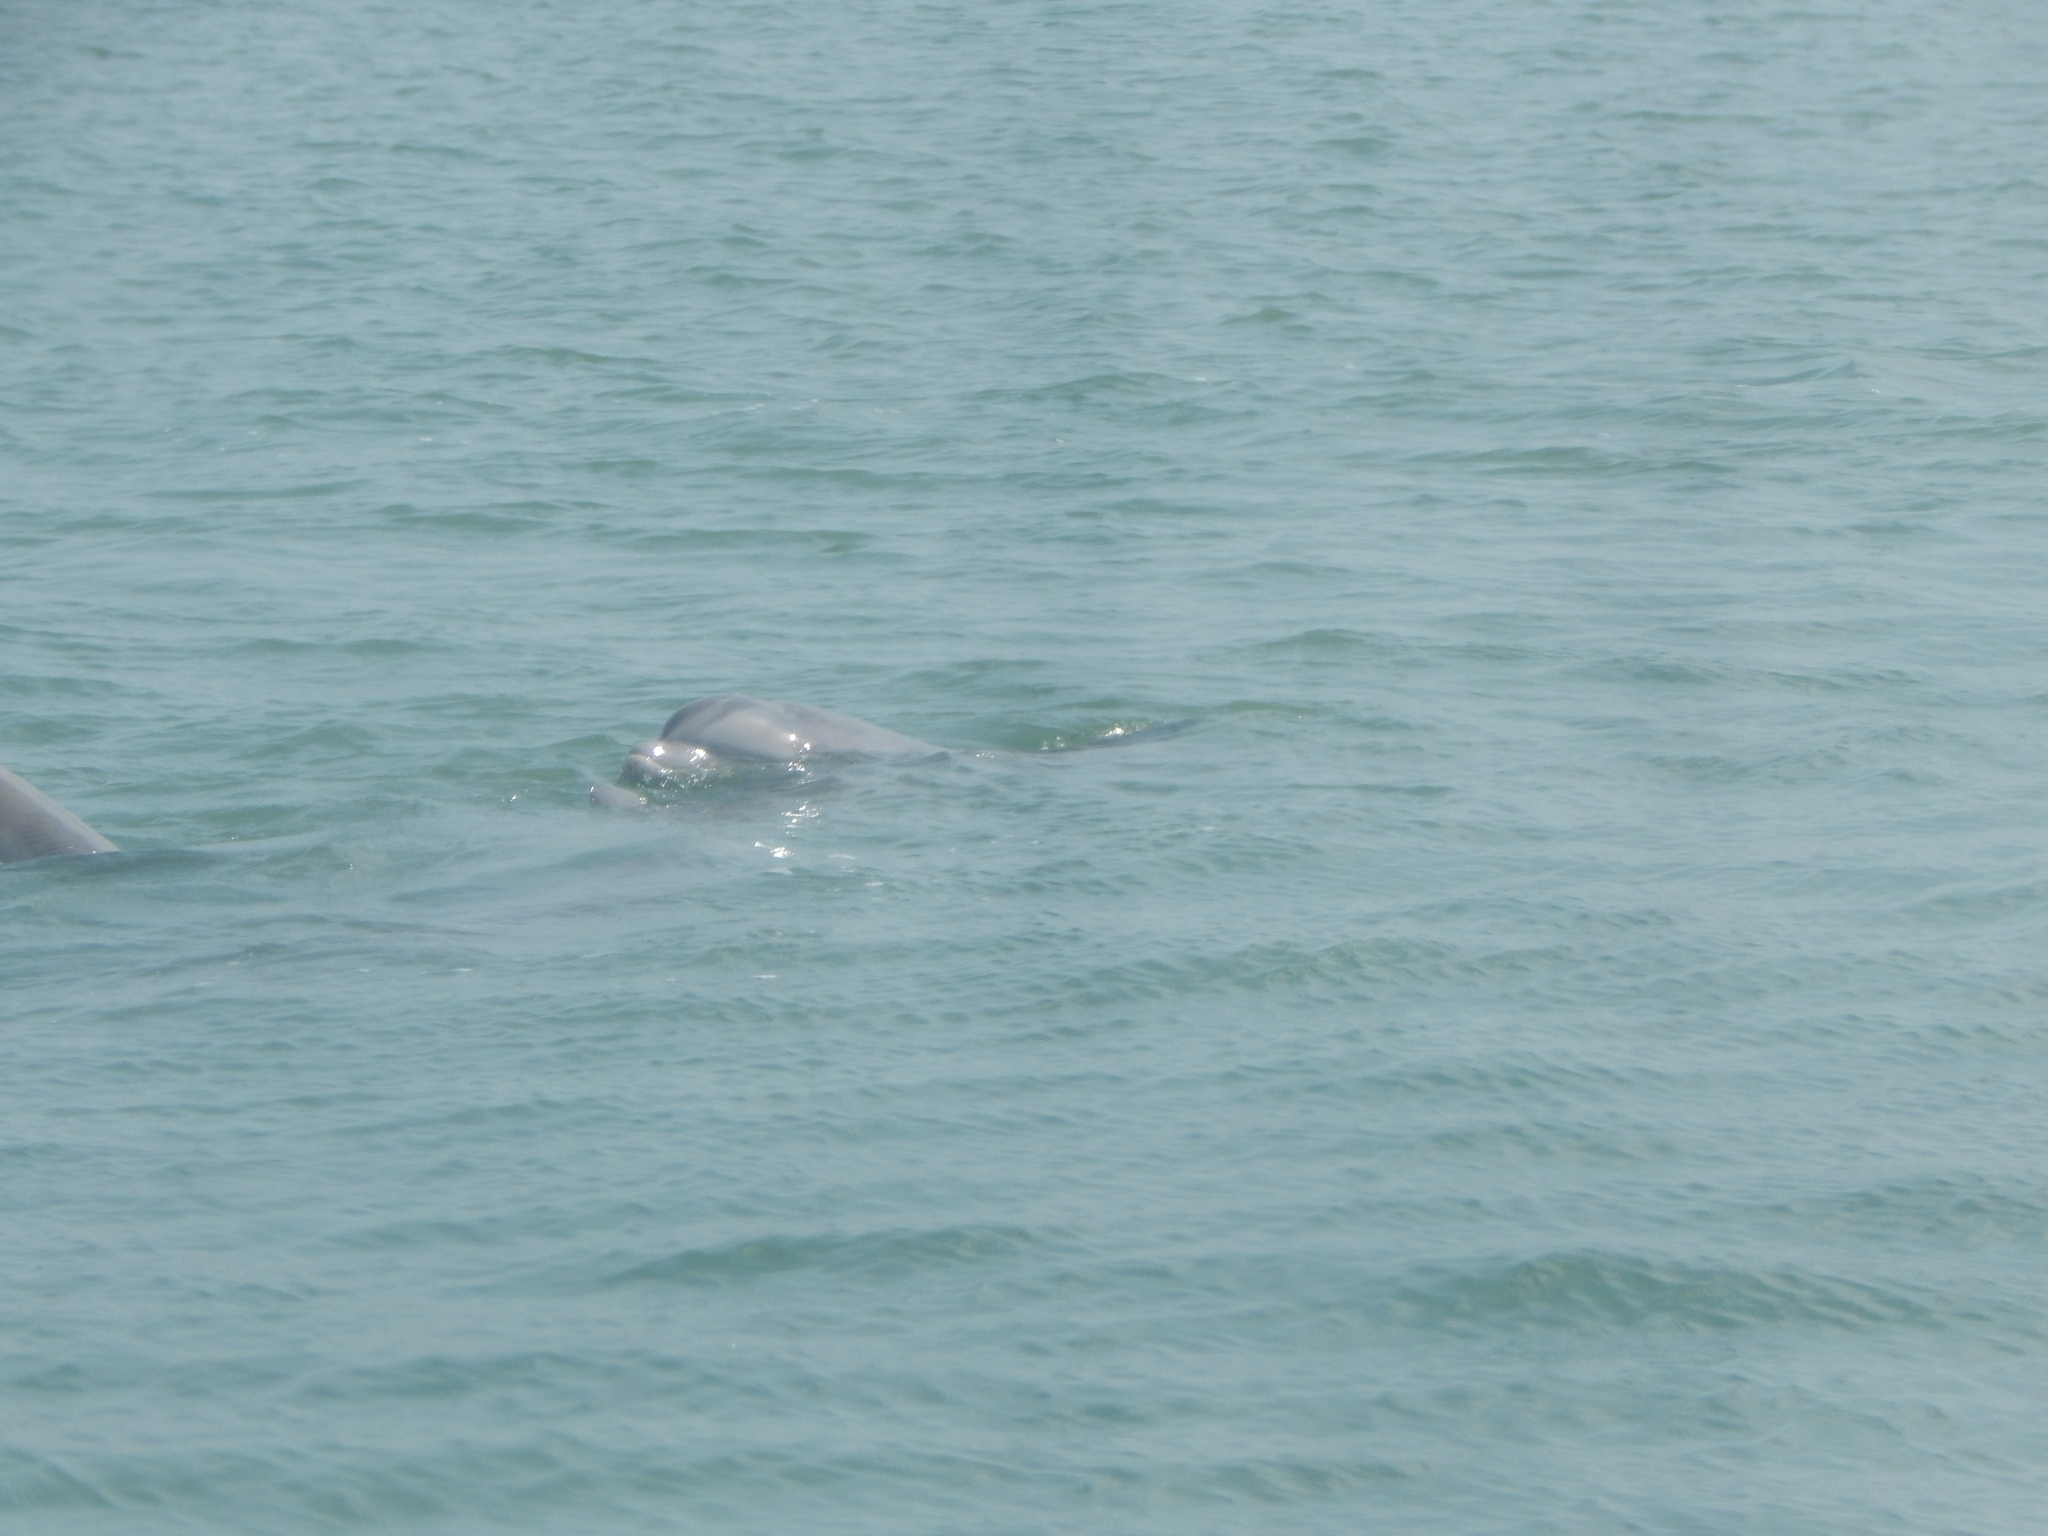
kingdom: Animalia
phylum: Chordata
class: Mammalia
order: Cetacea
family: Delphinidae
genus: Tursiops
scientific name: Tursiops truncatus
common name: Bottlenose dolphin
